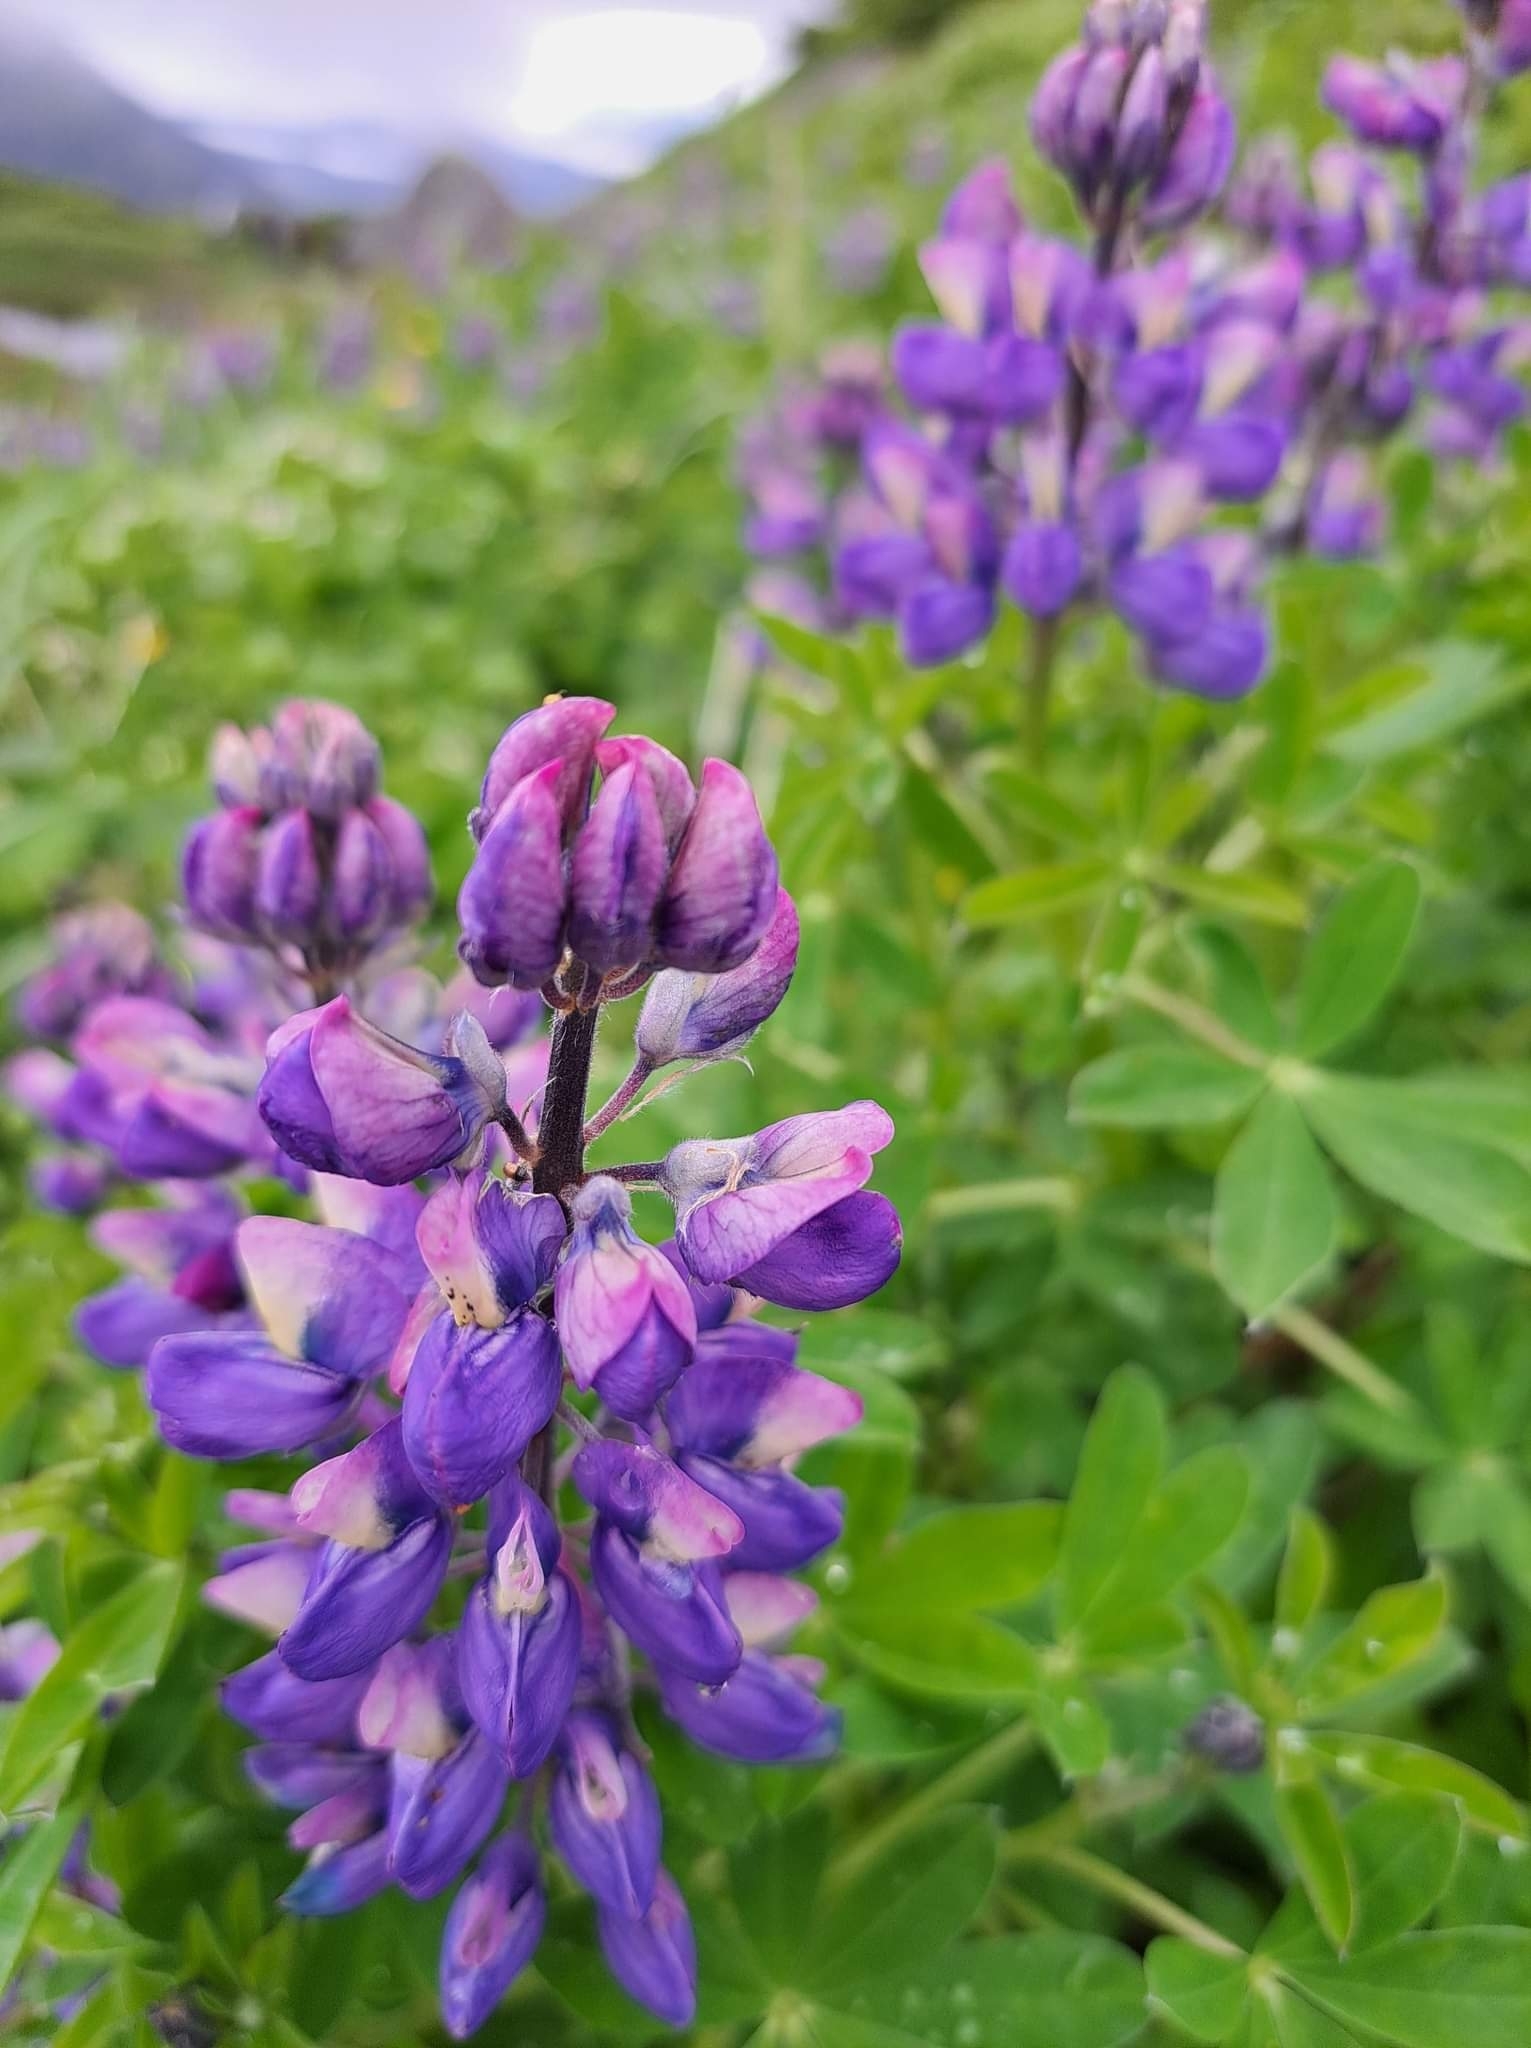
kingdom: Plantae
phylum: Tracheophyta
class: Magnoliopsida
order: Fabales
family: Fabaceae
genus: Lupinus
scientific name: Lupinus nootkatensis
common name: Nootka lupine
